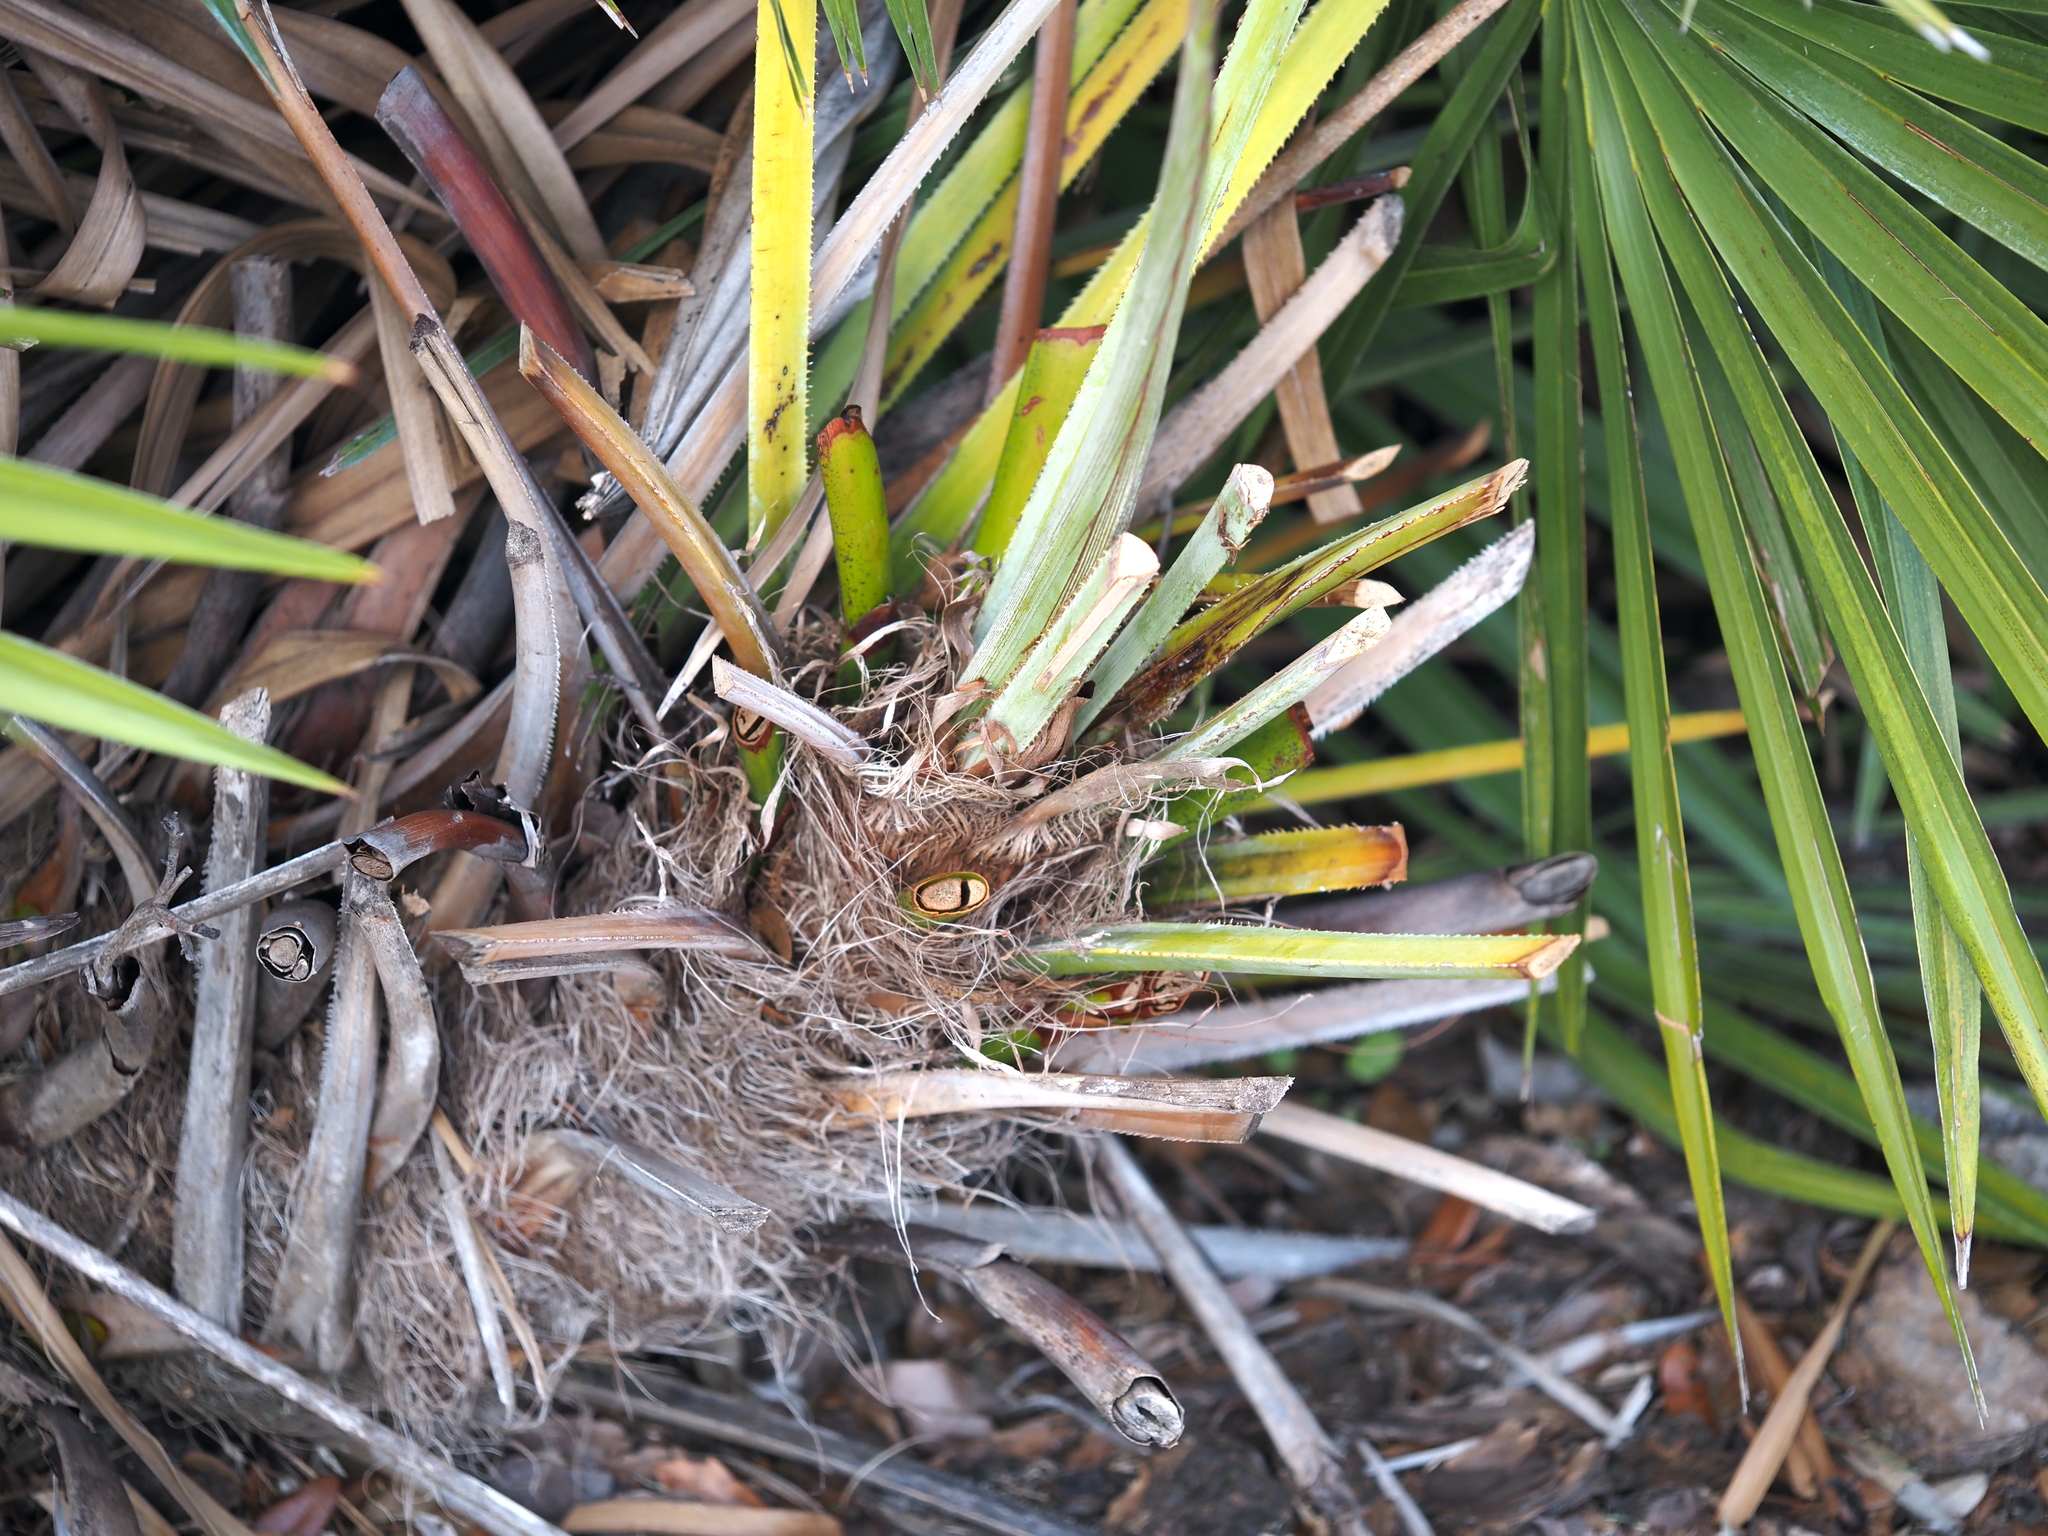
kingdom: Plantae
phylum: Tracheophyta
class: Liliopsida
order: Arecales
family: Arecaceae
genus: Serenoa
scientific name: Serenoa repens
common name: Saw-palmetto
